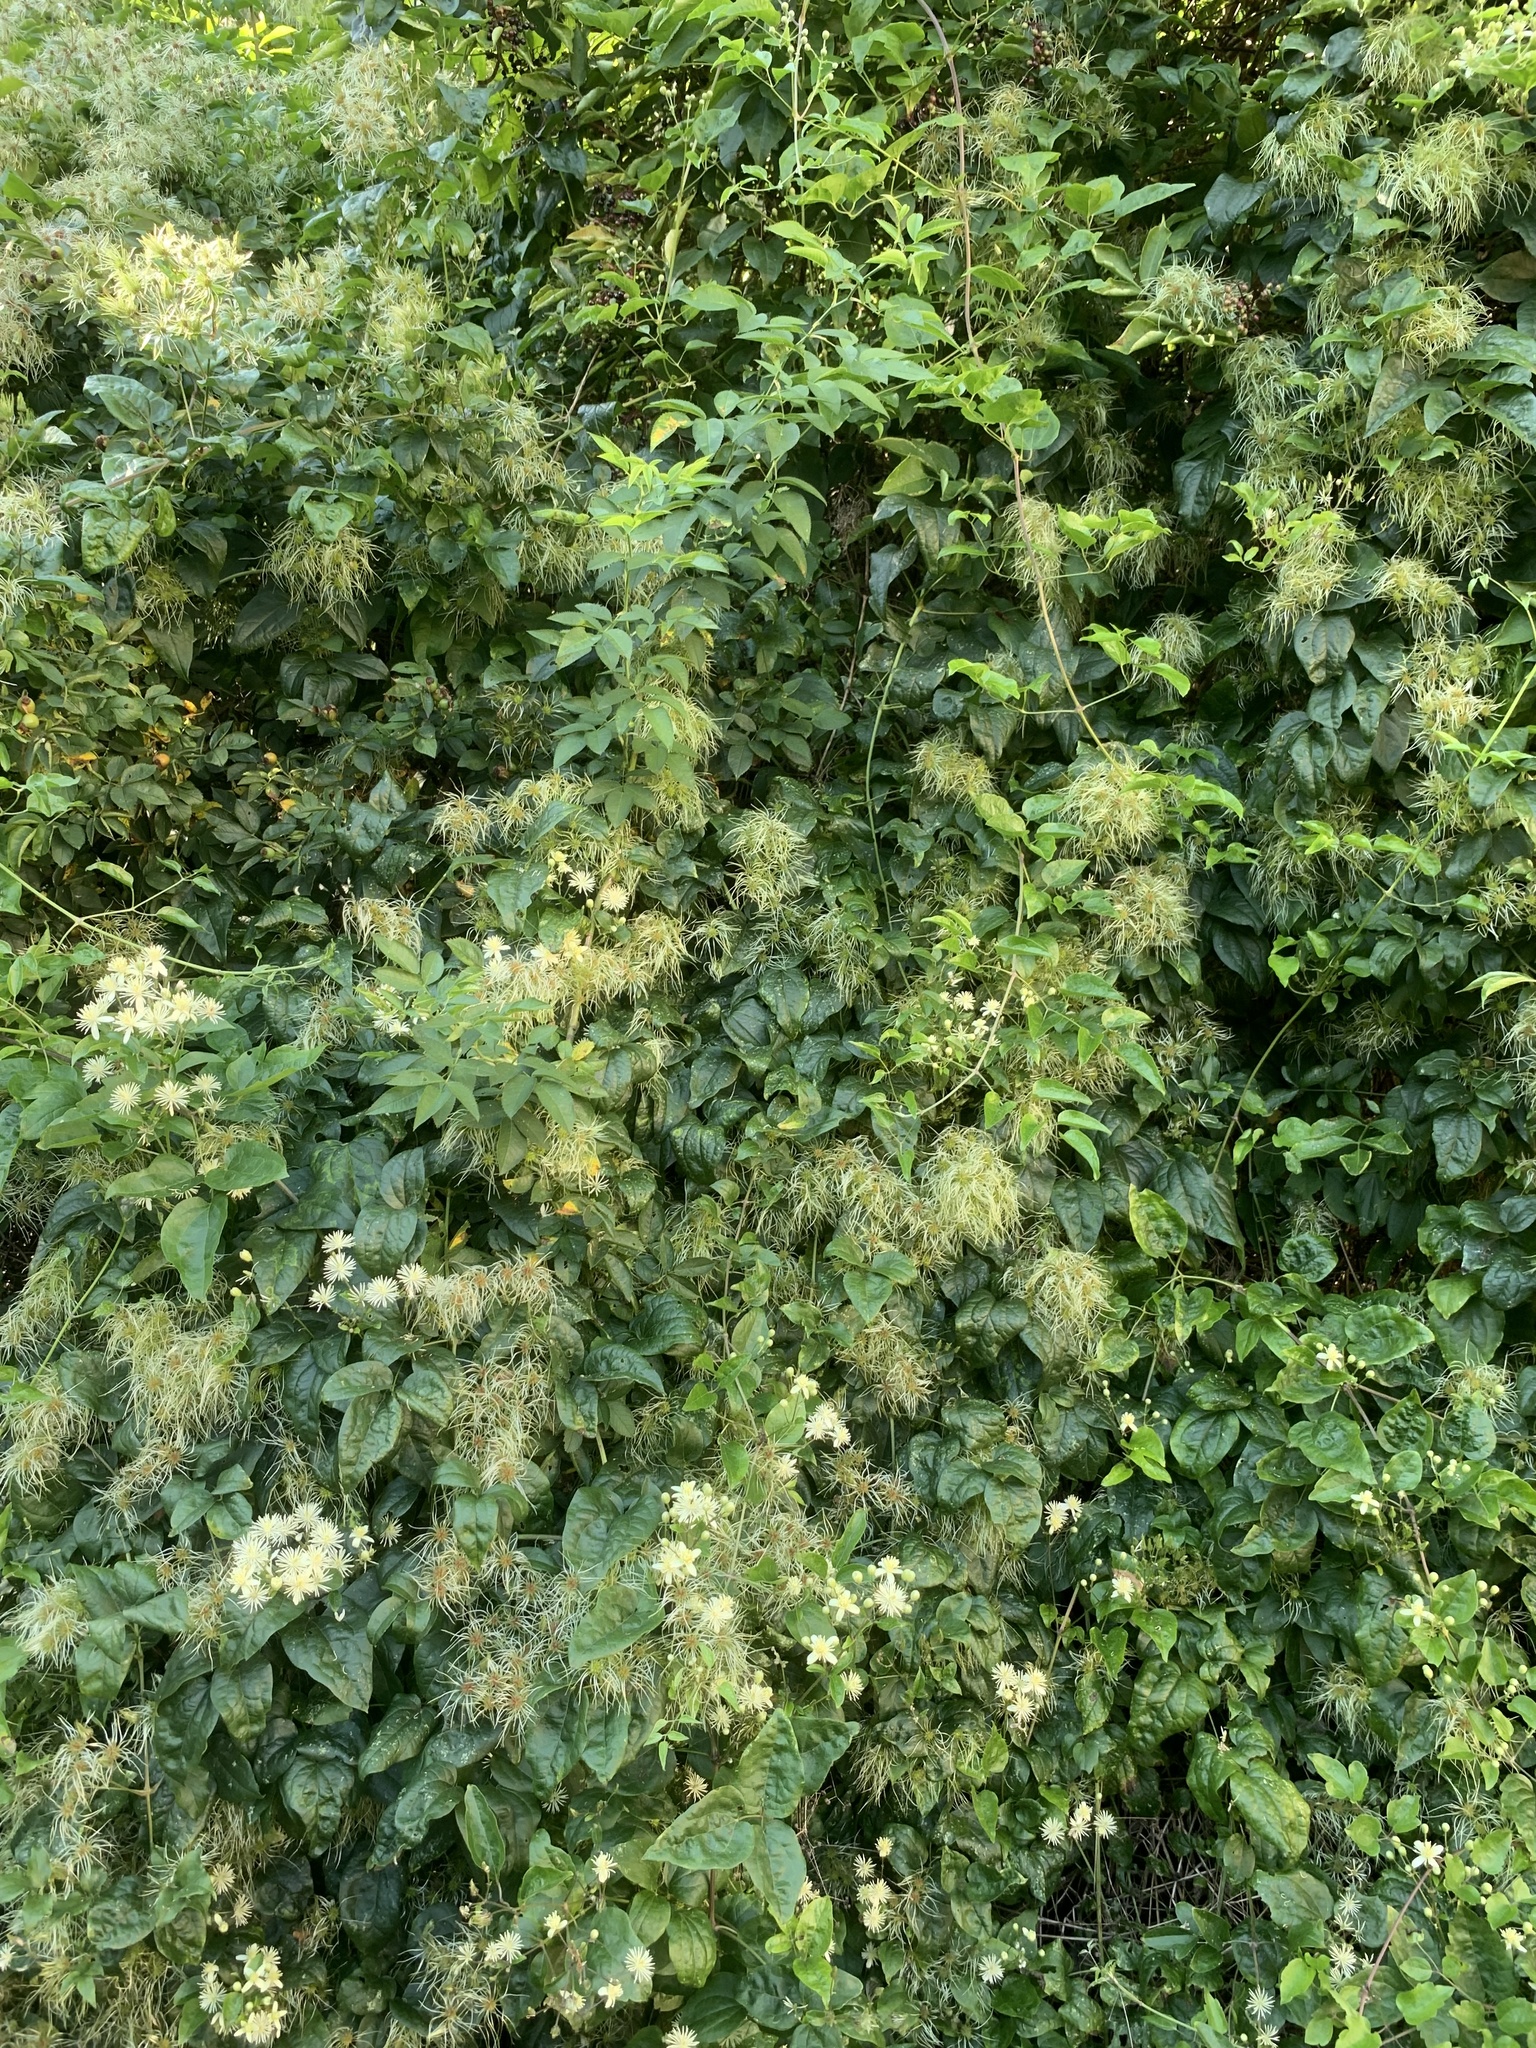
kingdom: Plantae
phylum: Tracheophyta
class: Magnoliopsida
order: Ranunculales
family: Ranunculaceae
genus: Clematis
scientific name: Clematis vitalba
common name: Evergreen clematis
